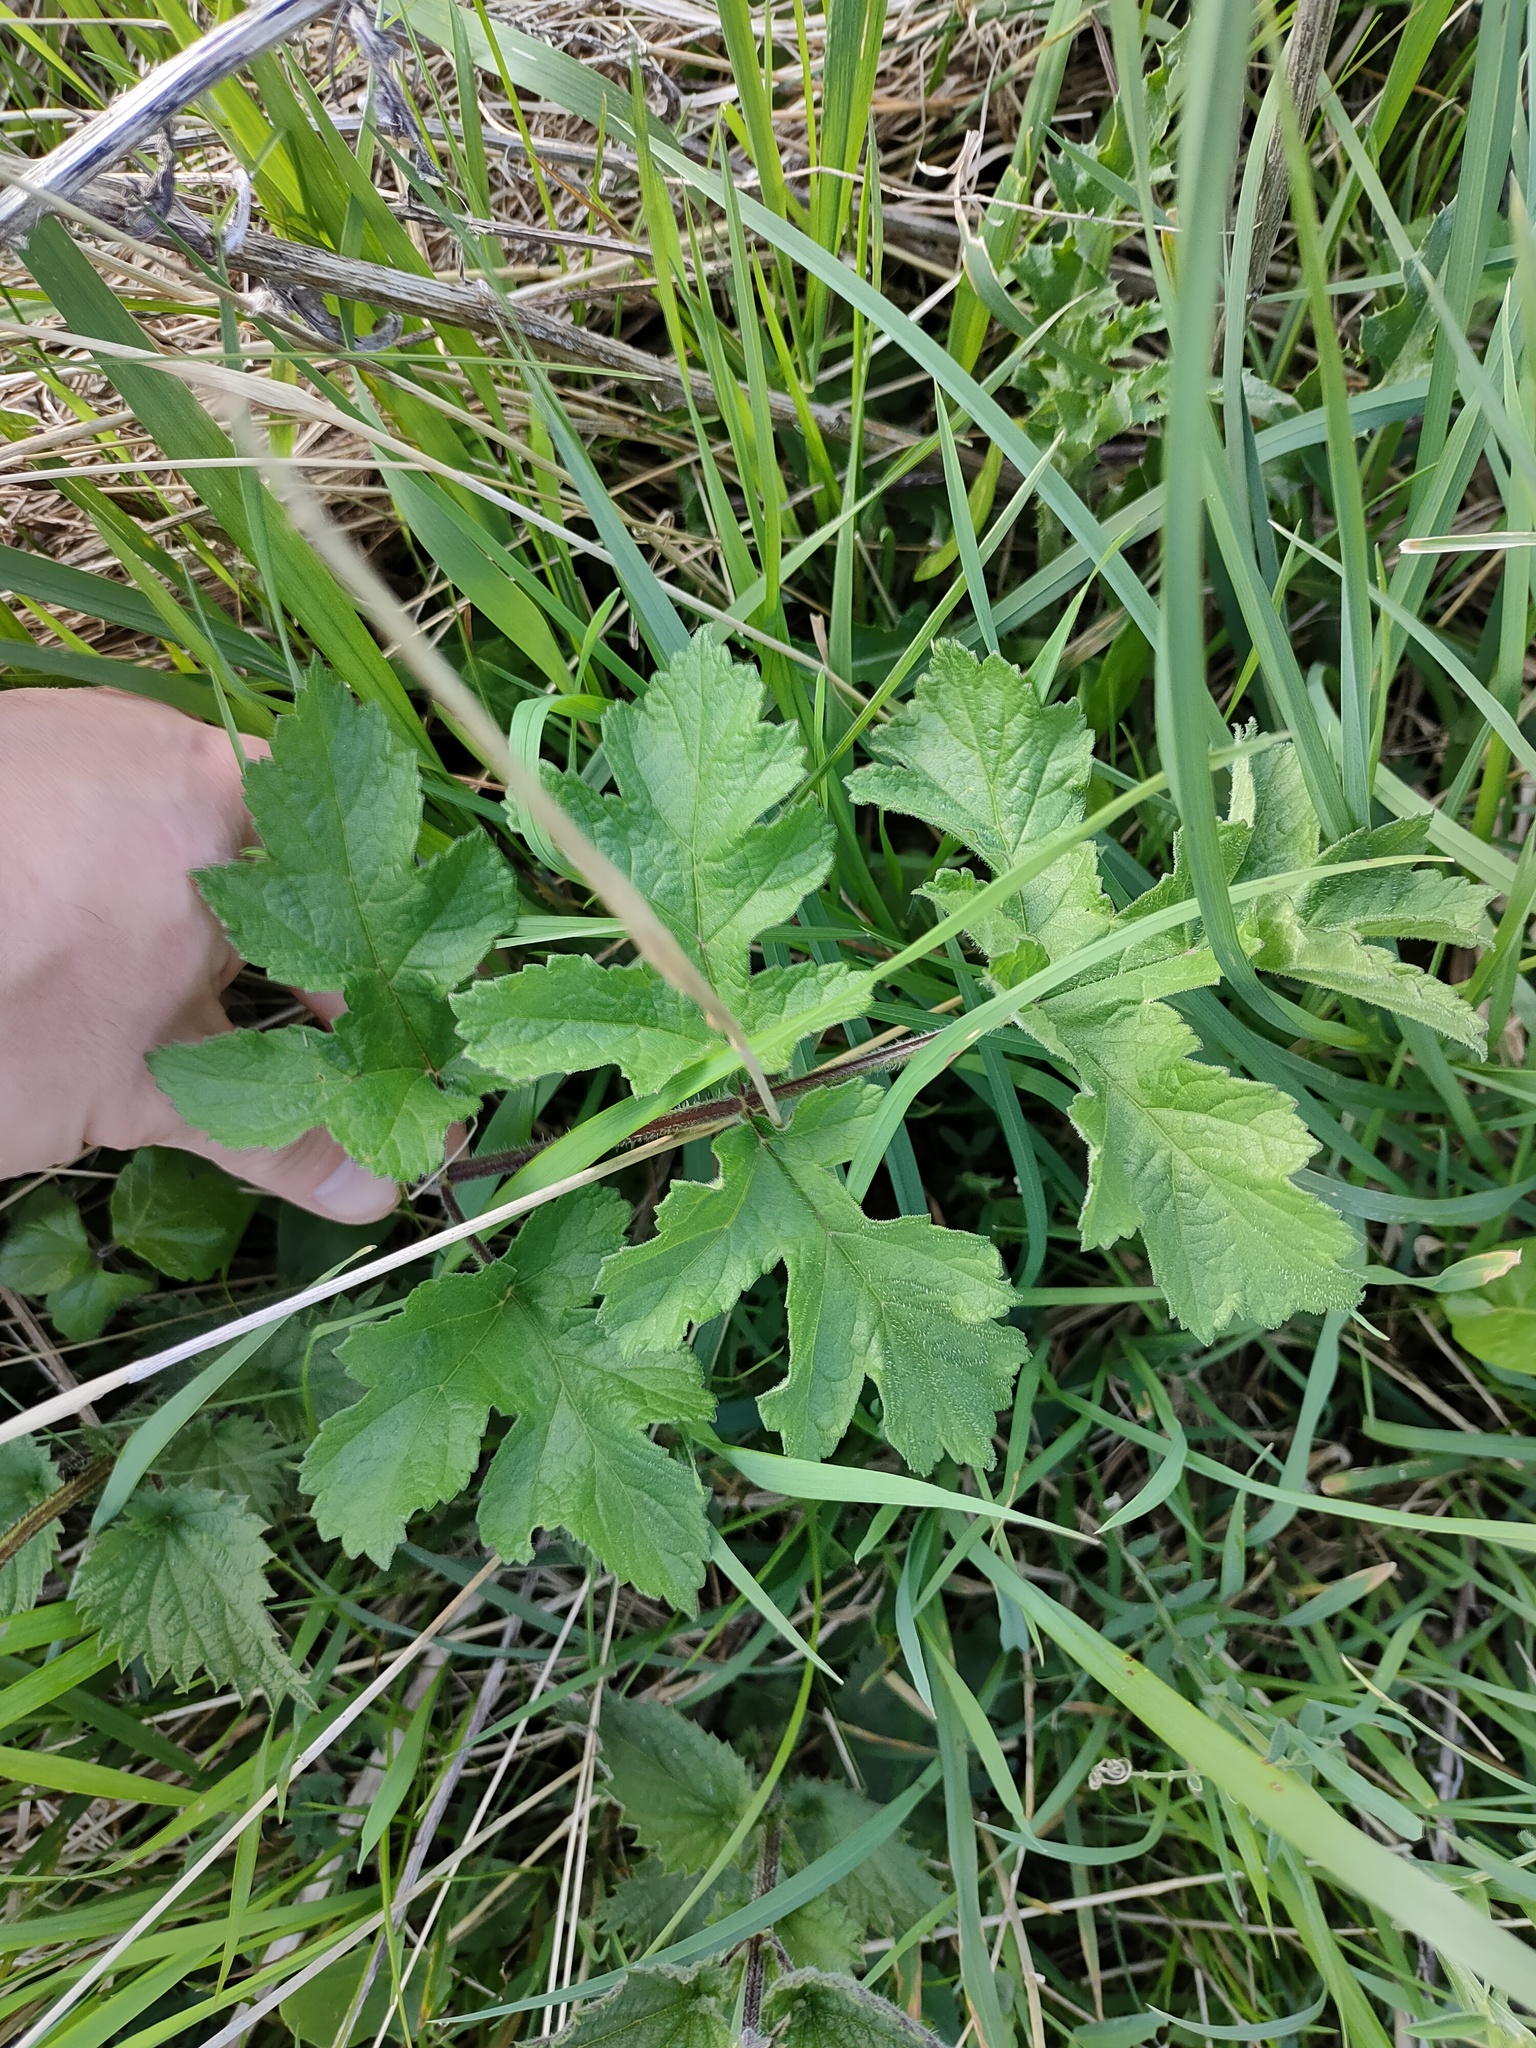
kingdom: Plantae
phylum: Tracheophyta
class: Magnoliopsida
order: Apiales
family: Apiaceae
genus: Heracleum
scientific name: Heracleum sphondylium
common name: Hogweed
